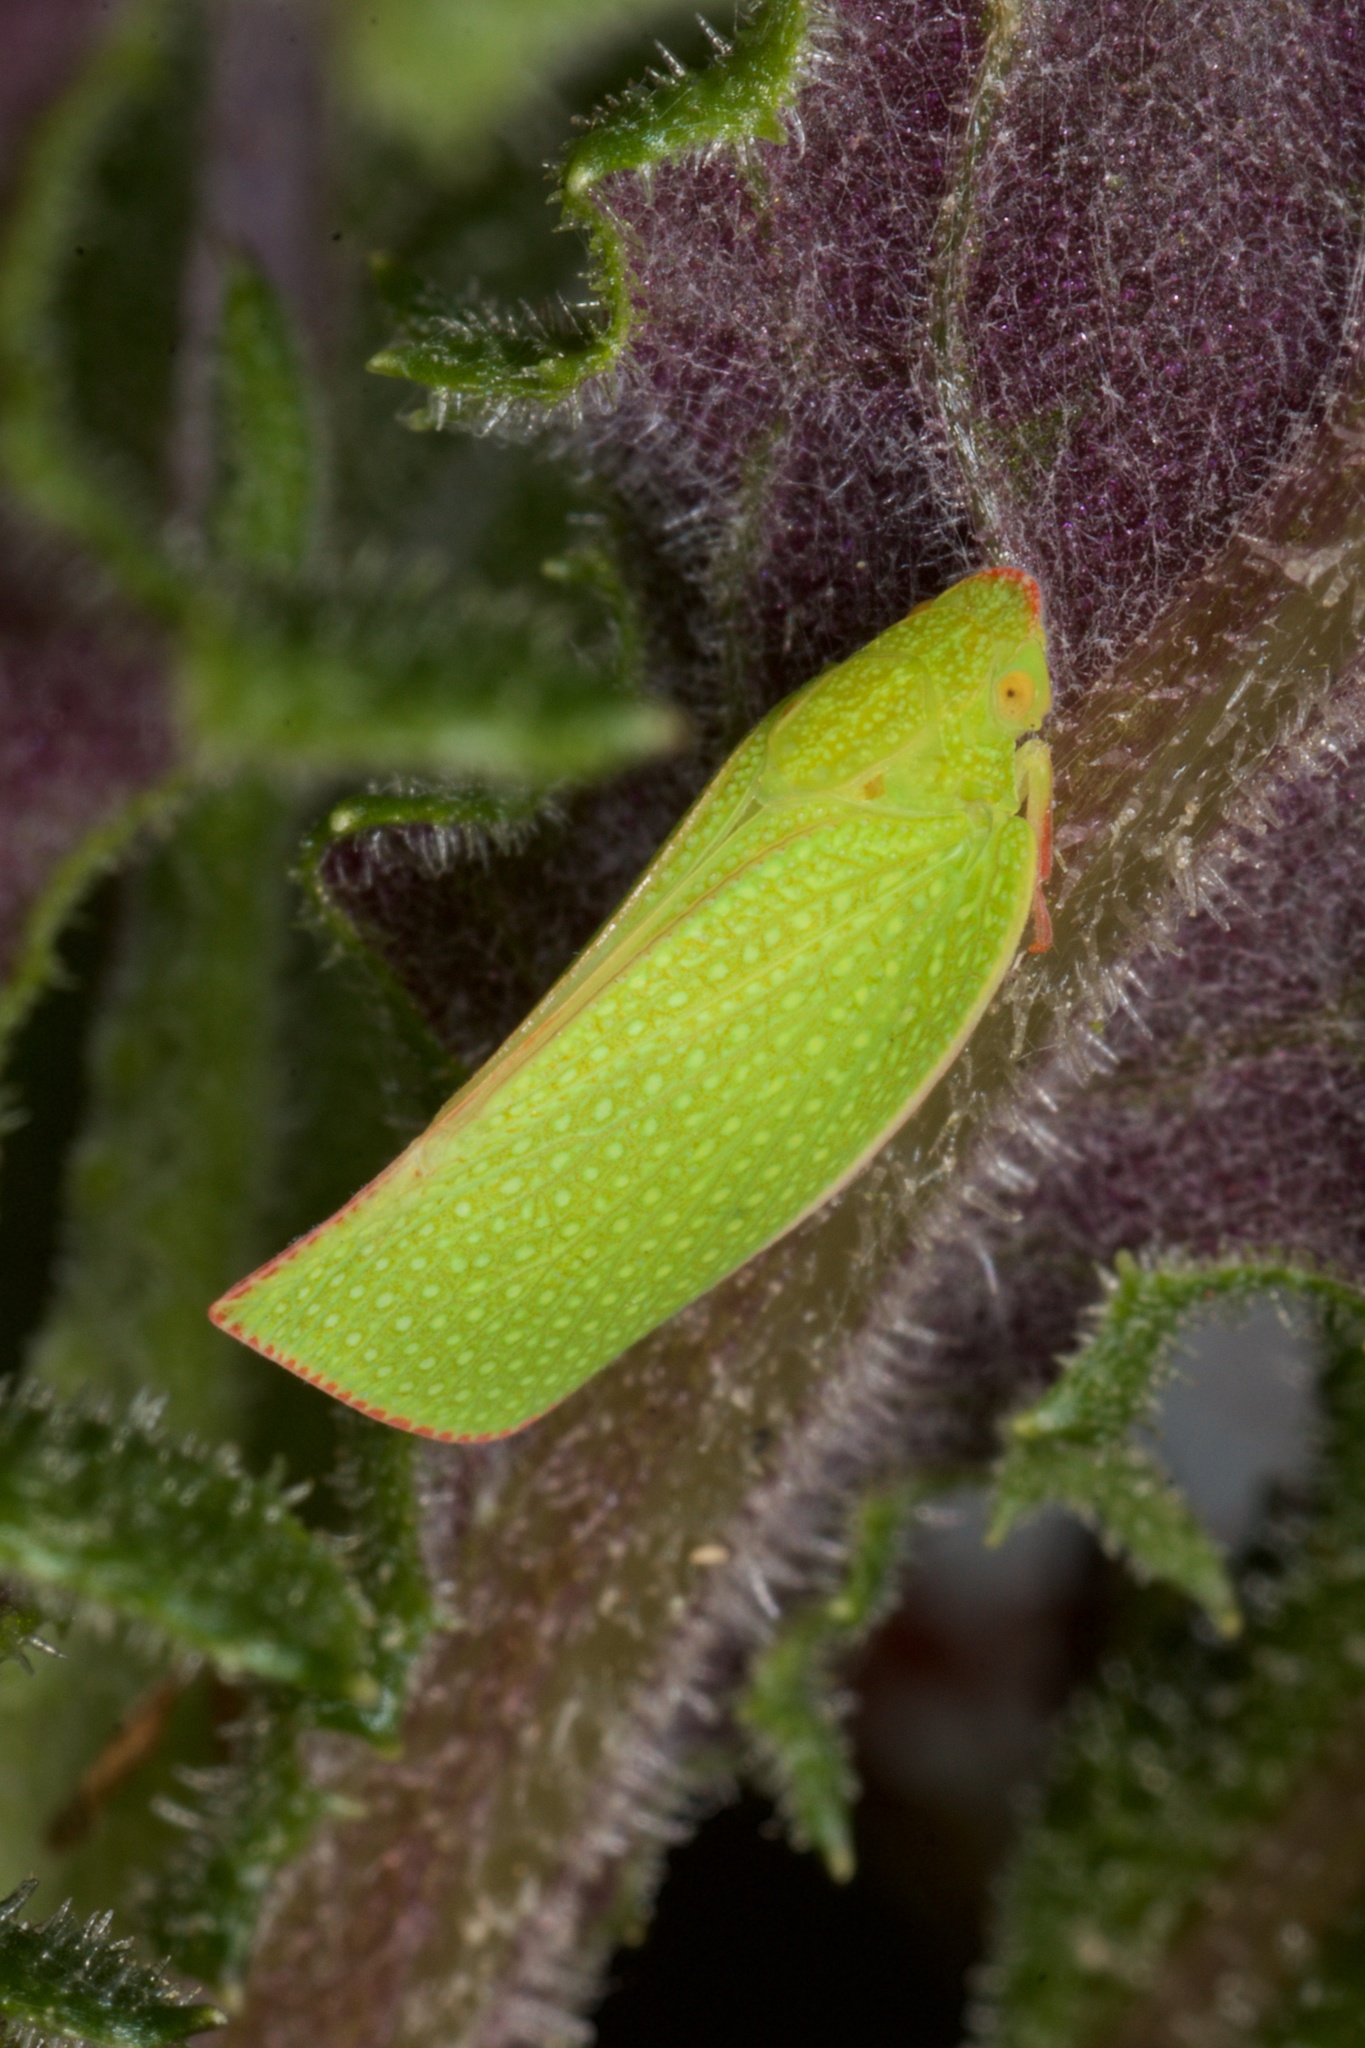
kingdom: Animalia
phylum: Arthropoda
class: Insecta
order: Hemiptera
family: Flatidae
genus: Siphanta
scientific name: Siphanta acuta
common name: Torpedo bug
